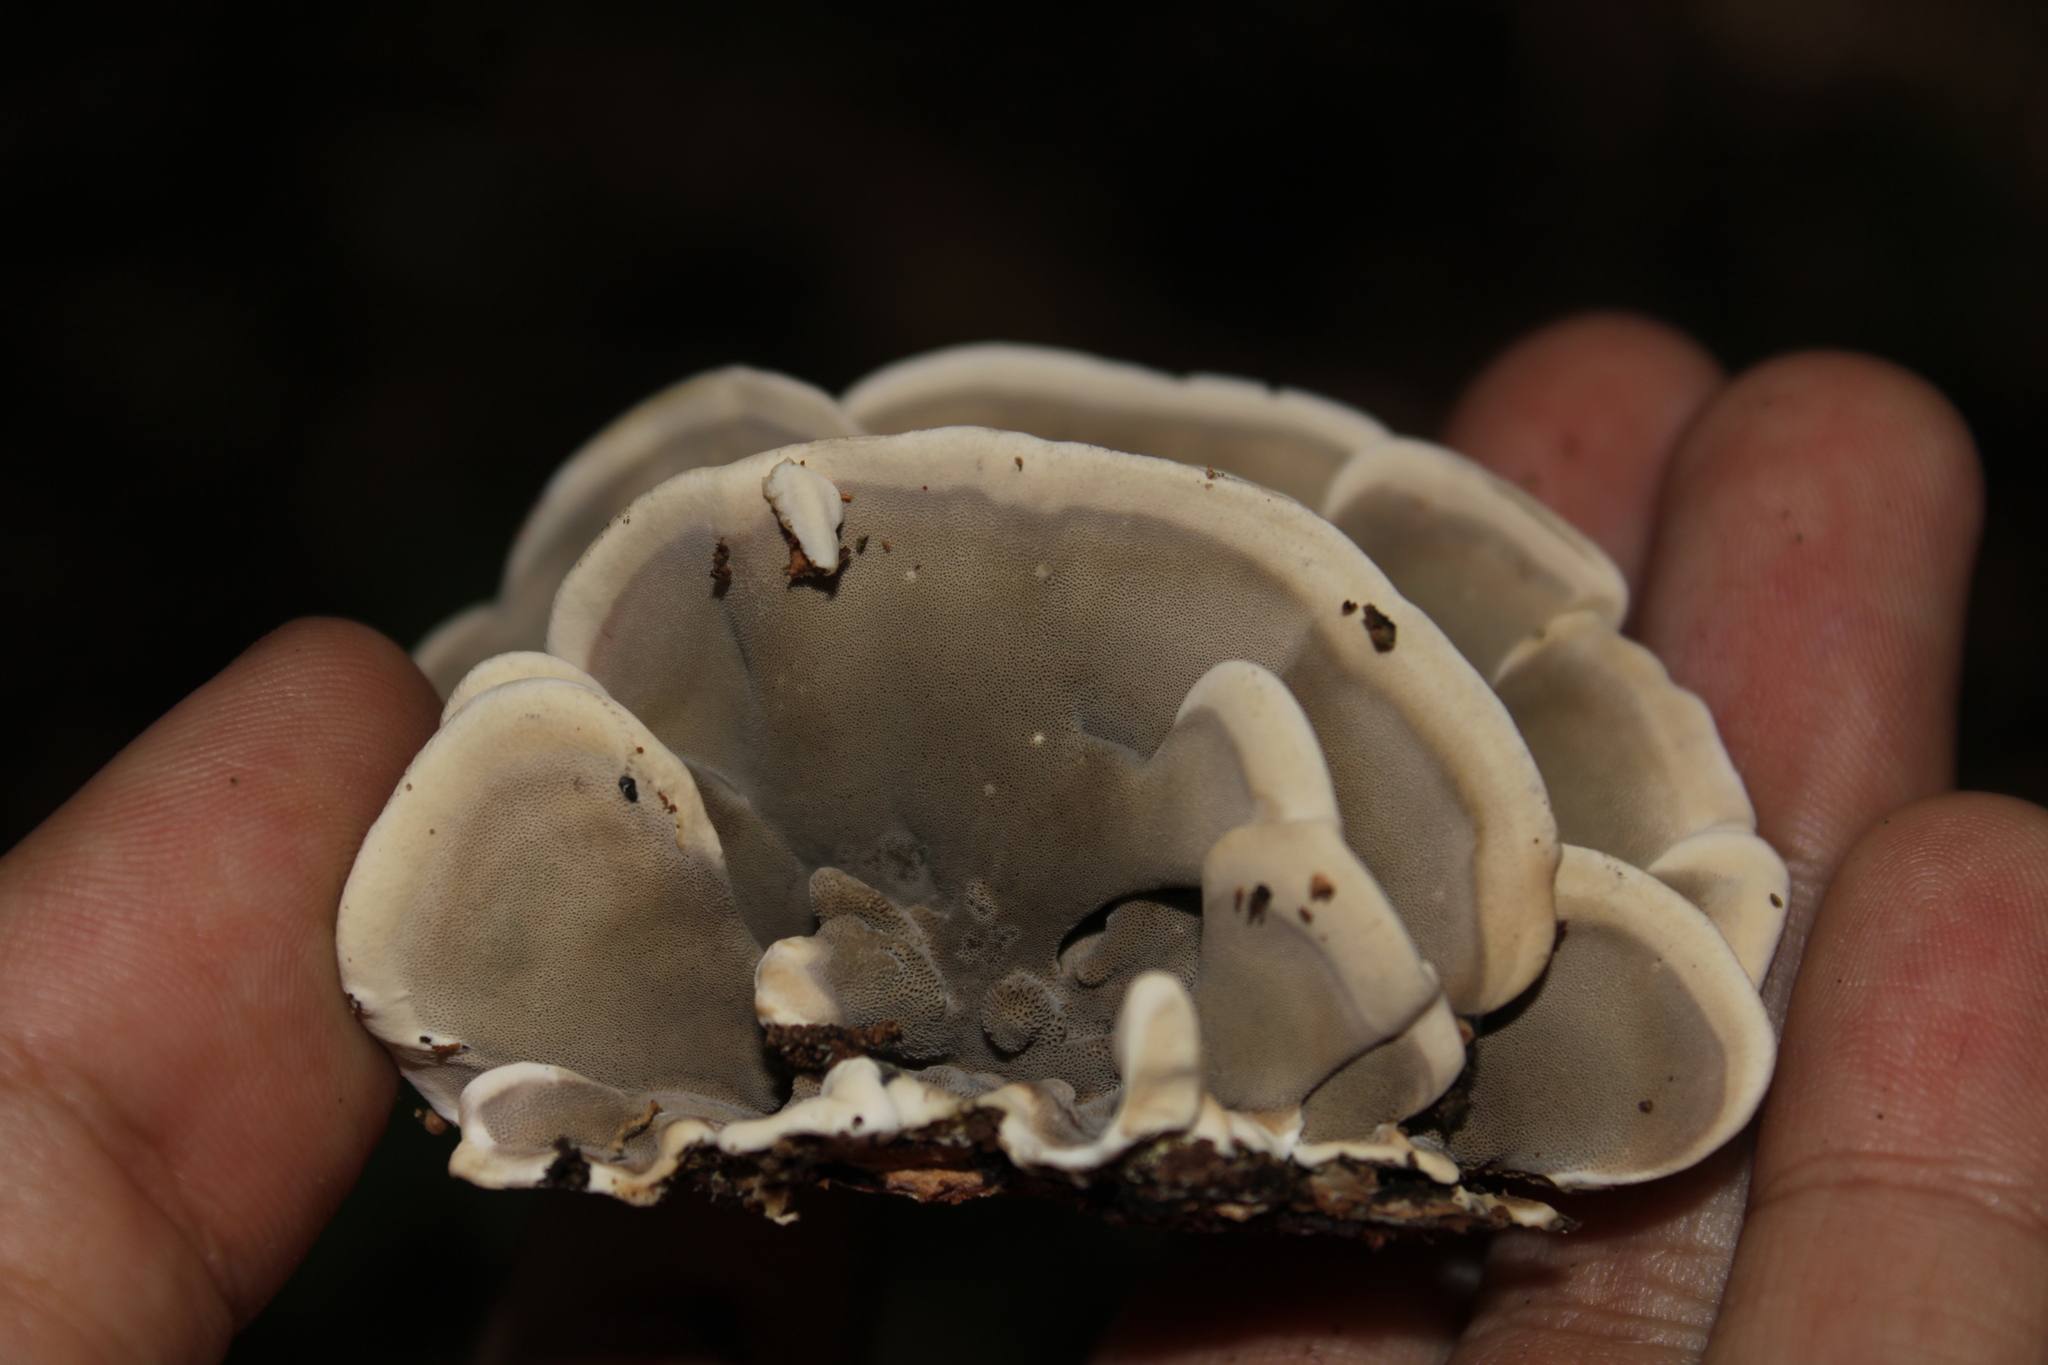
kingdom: Fungi
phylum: Basidiomycota
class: Agaricomycetes
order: Polyporales
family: Phanerochaetaceae
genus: Bjerkandera
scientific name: Bjerkandera adusta
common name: Smoky bracket
